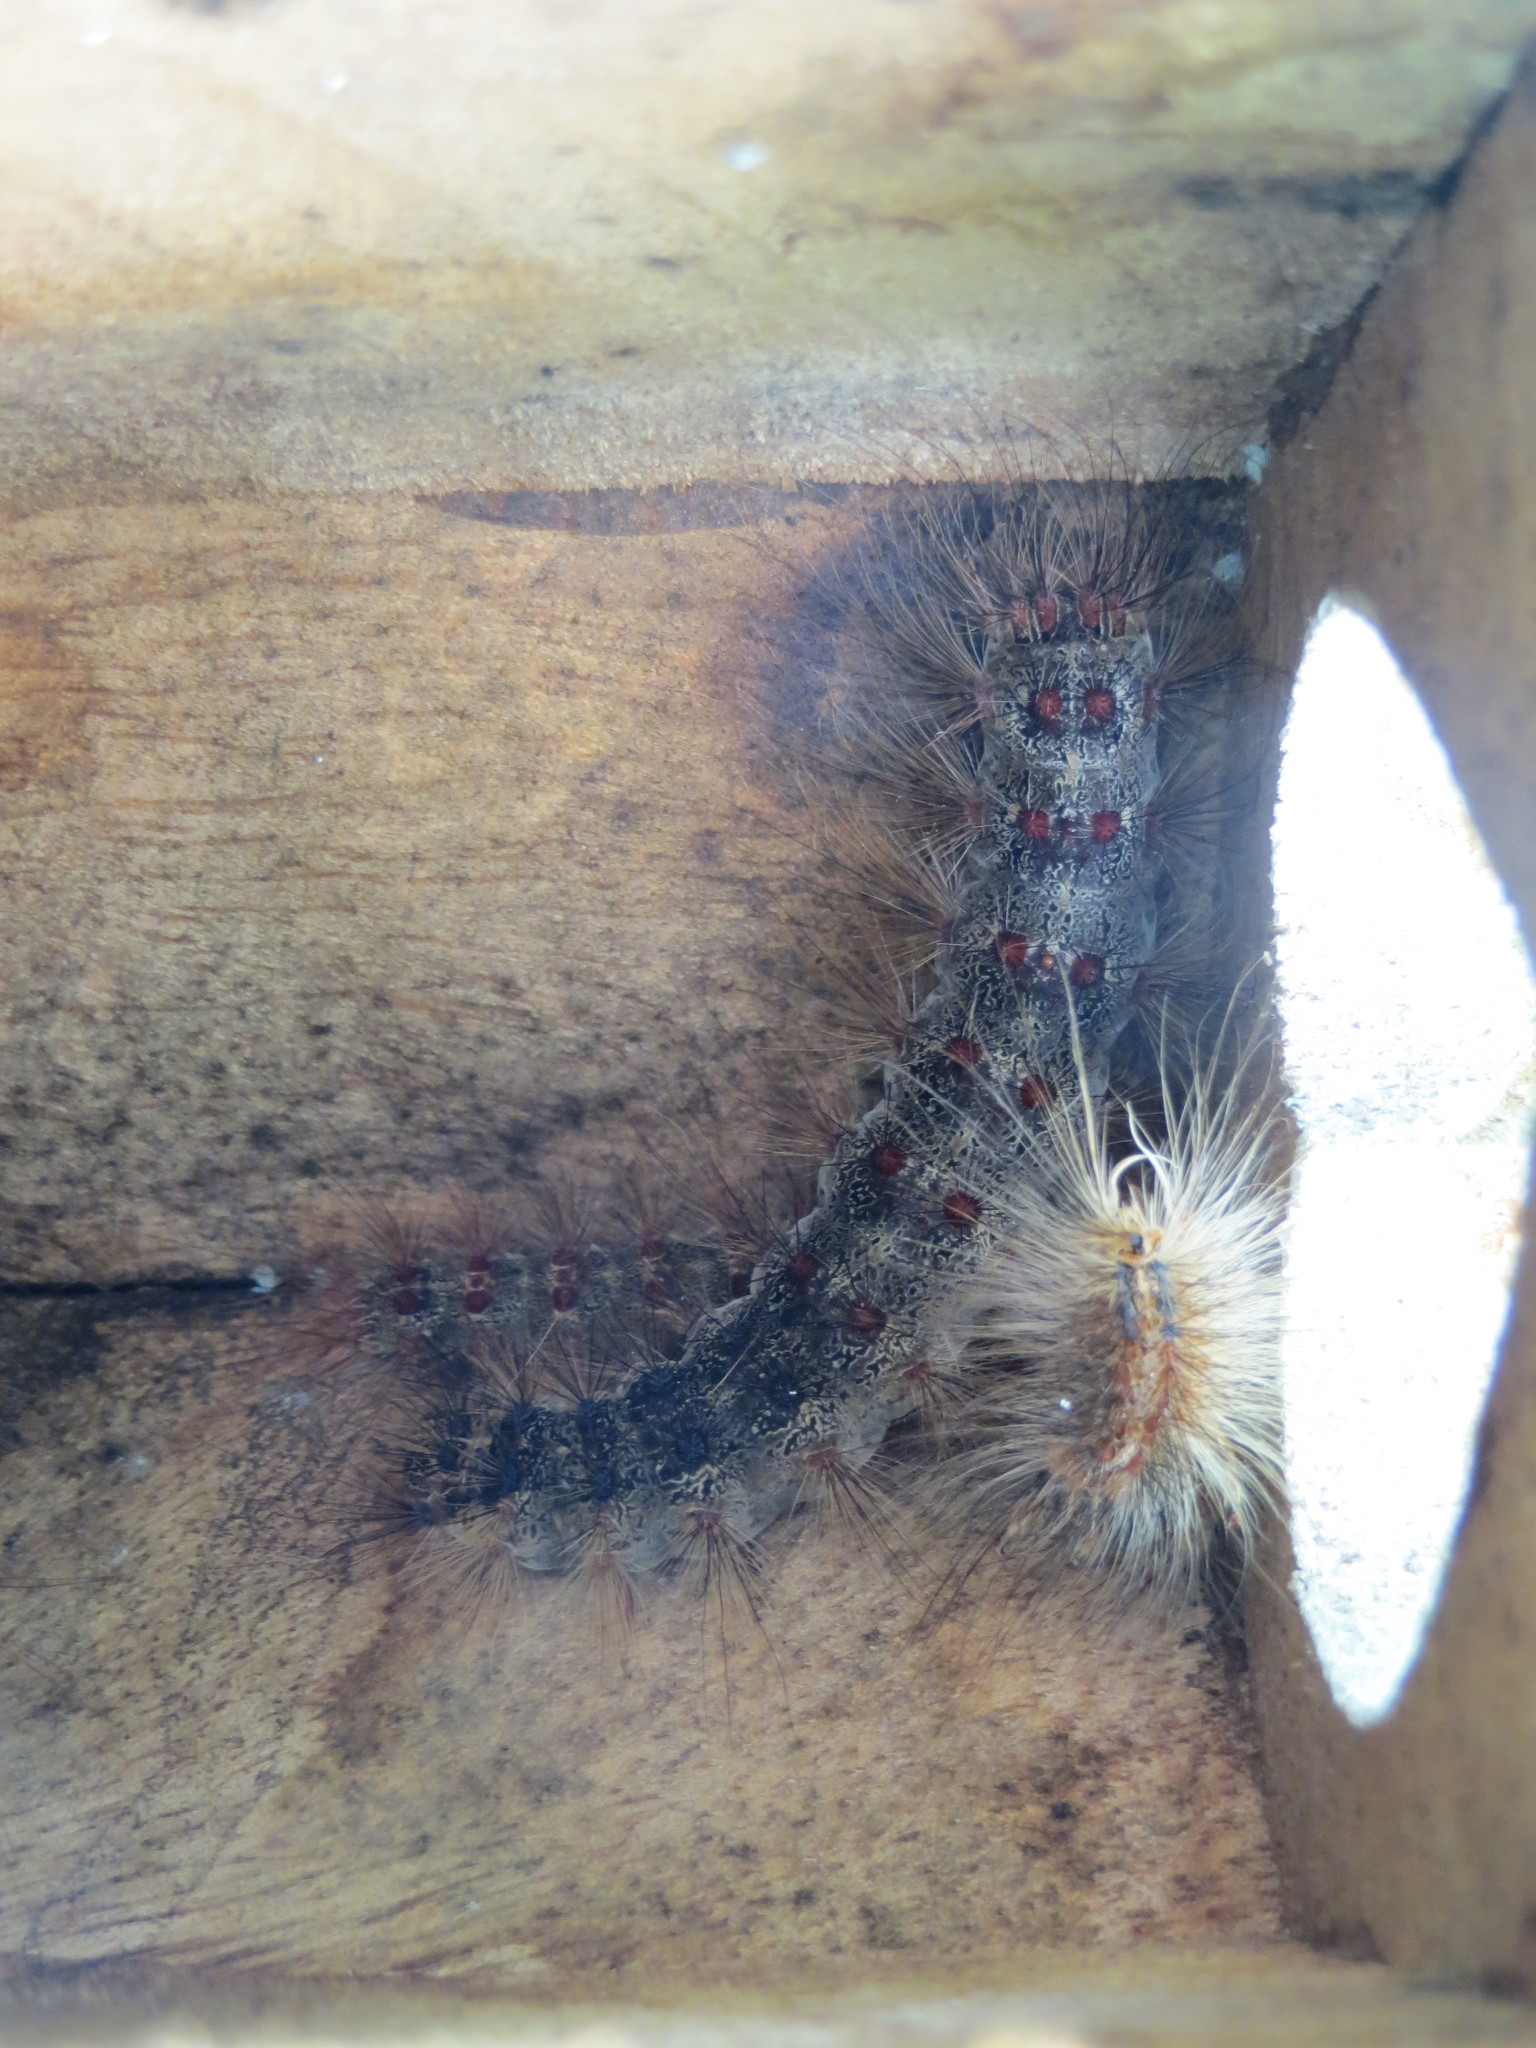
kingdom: Animalia
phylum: Arthropoda
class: Insecta
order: Lepidoptera
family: Erebidae
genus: Lymantria
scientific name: Lymantria dispar
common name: Gypsy moth
